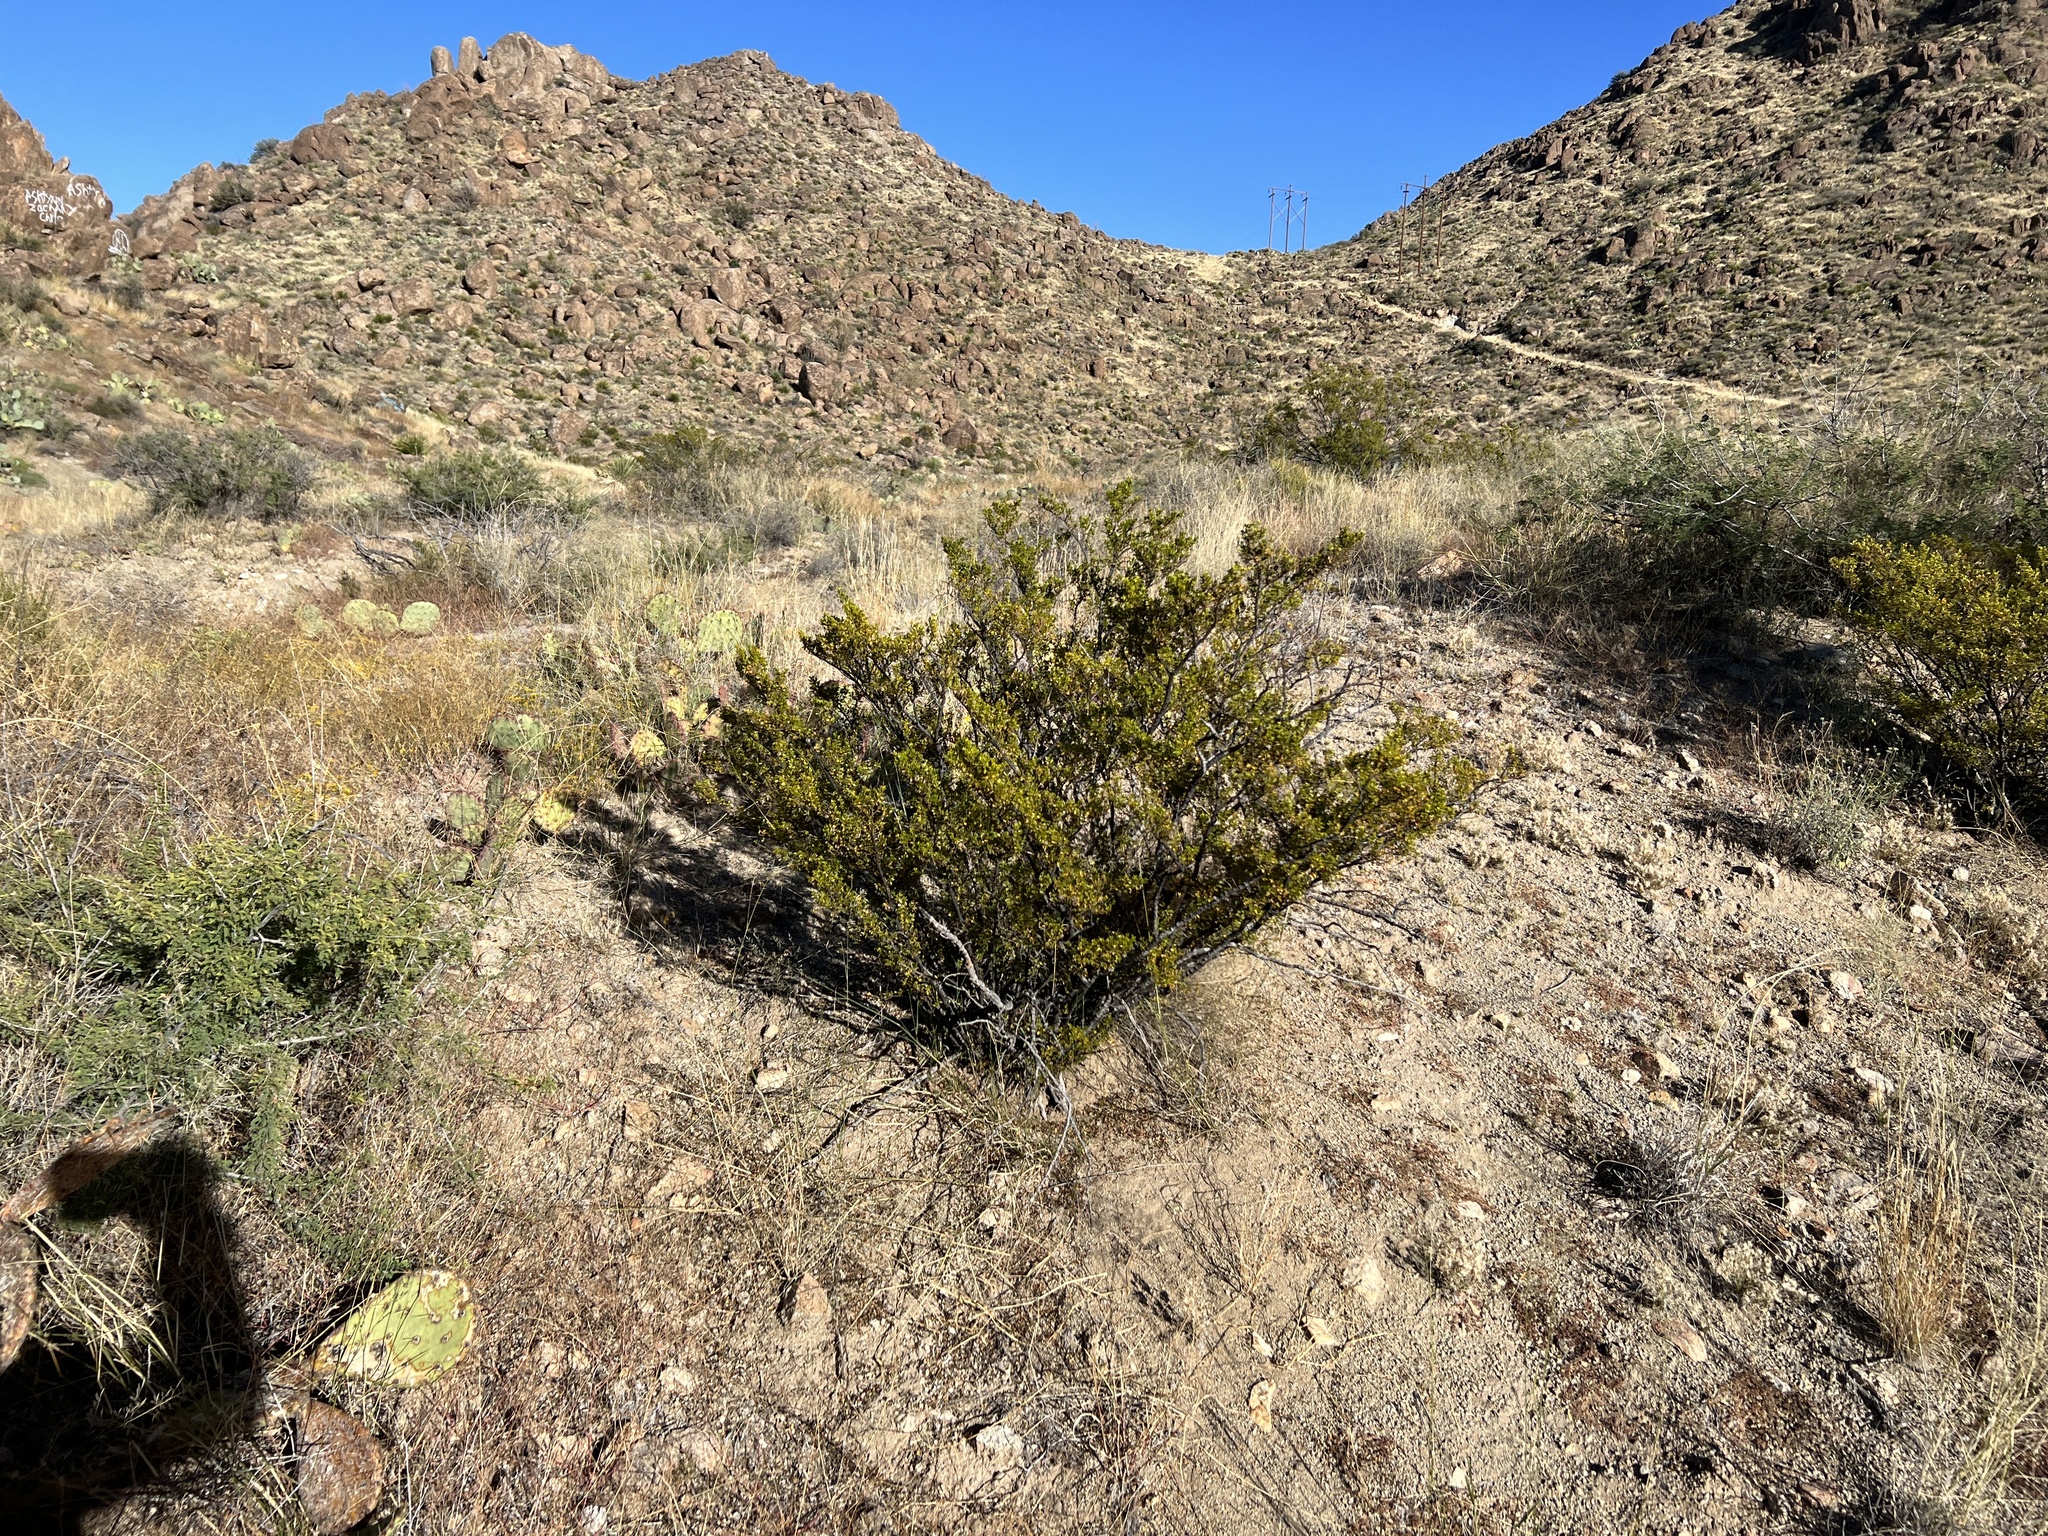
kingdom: Plantae
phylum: Tracheophyta
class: Magnoliopsida
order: Zygophyllales
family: Zygophyllaceae
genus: Larrea
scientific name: Larrea tridentata
